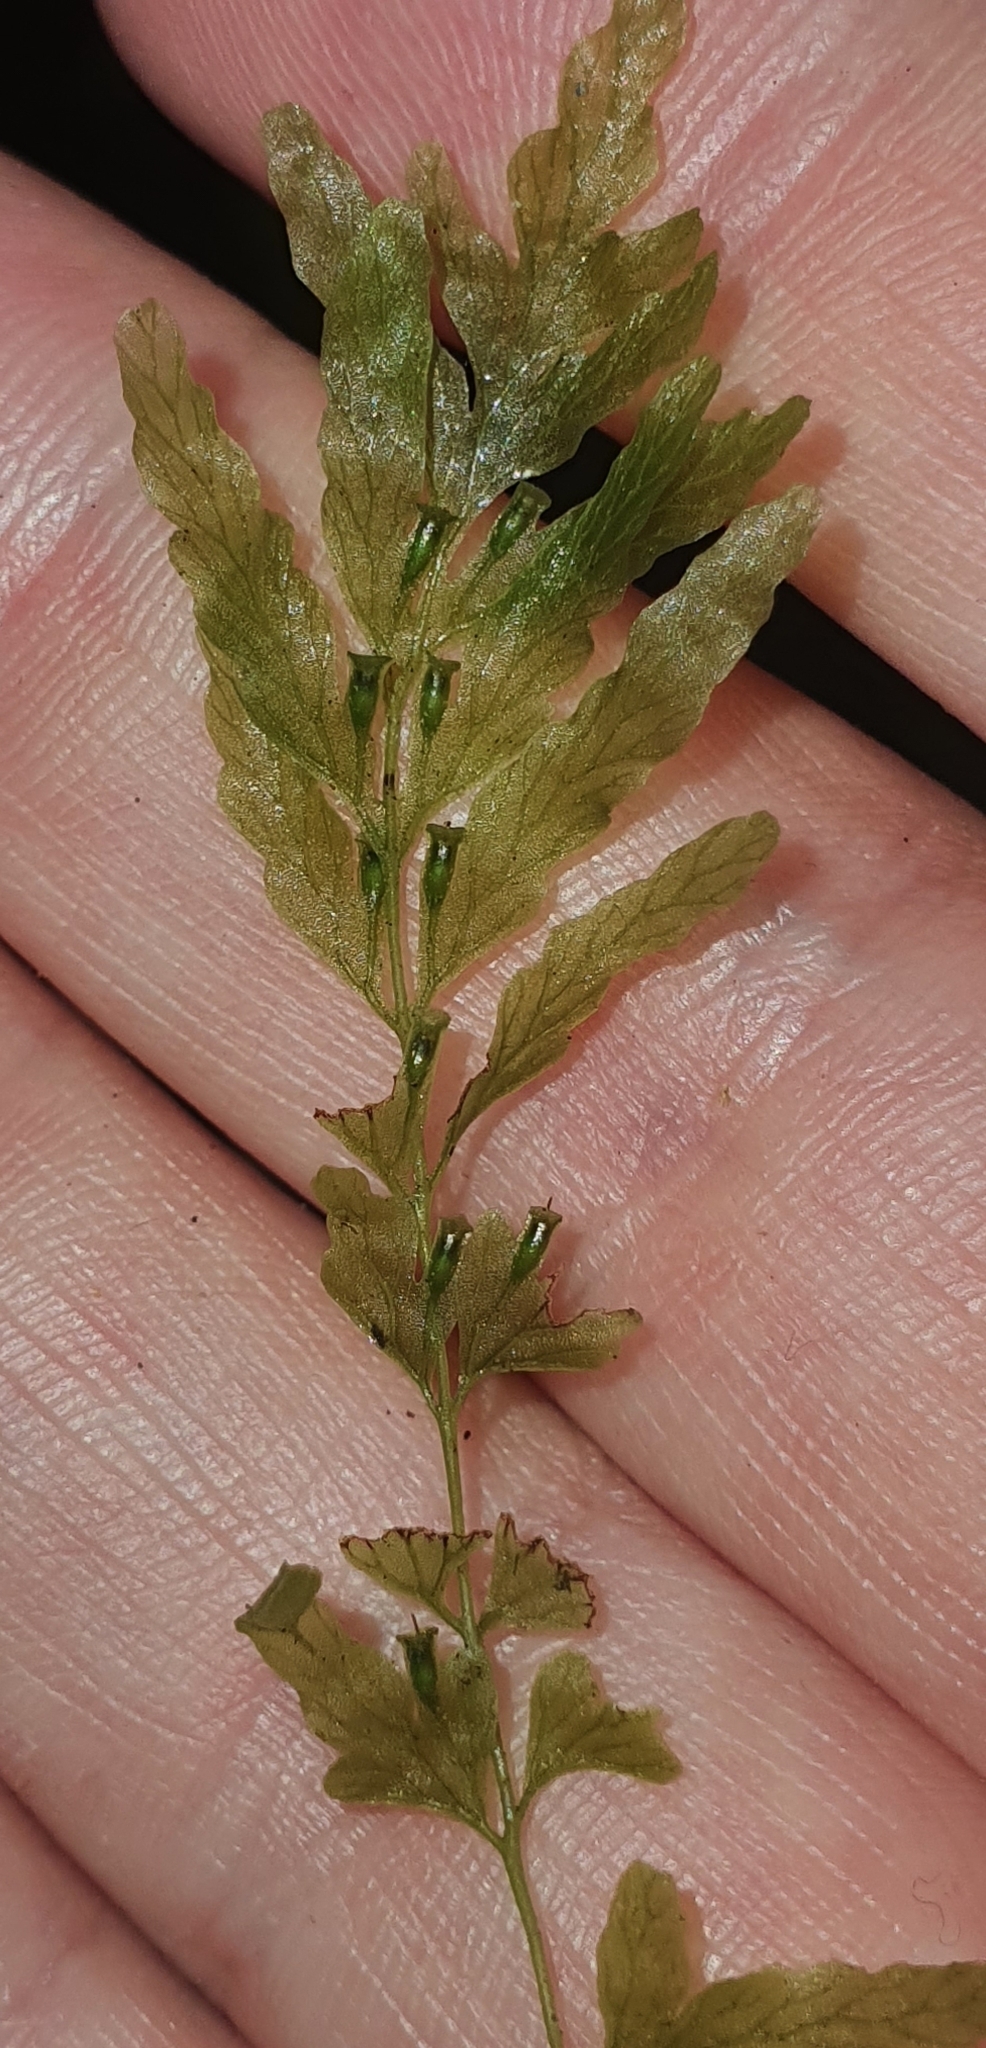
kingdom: Plantae
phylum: Tracheophyta
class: Polypodiopsida
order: Hymenophyllales
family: Hymenophyllaceae
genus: Polyphlebium
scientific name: Polyphlebium venosum
